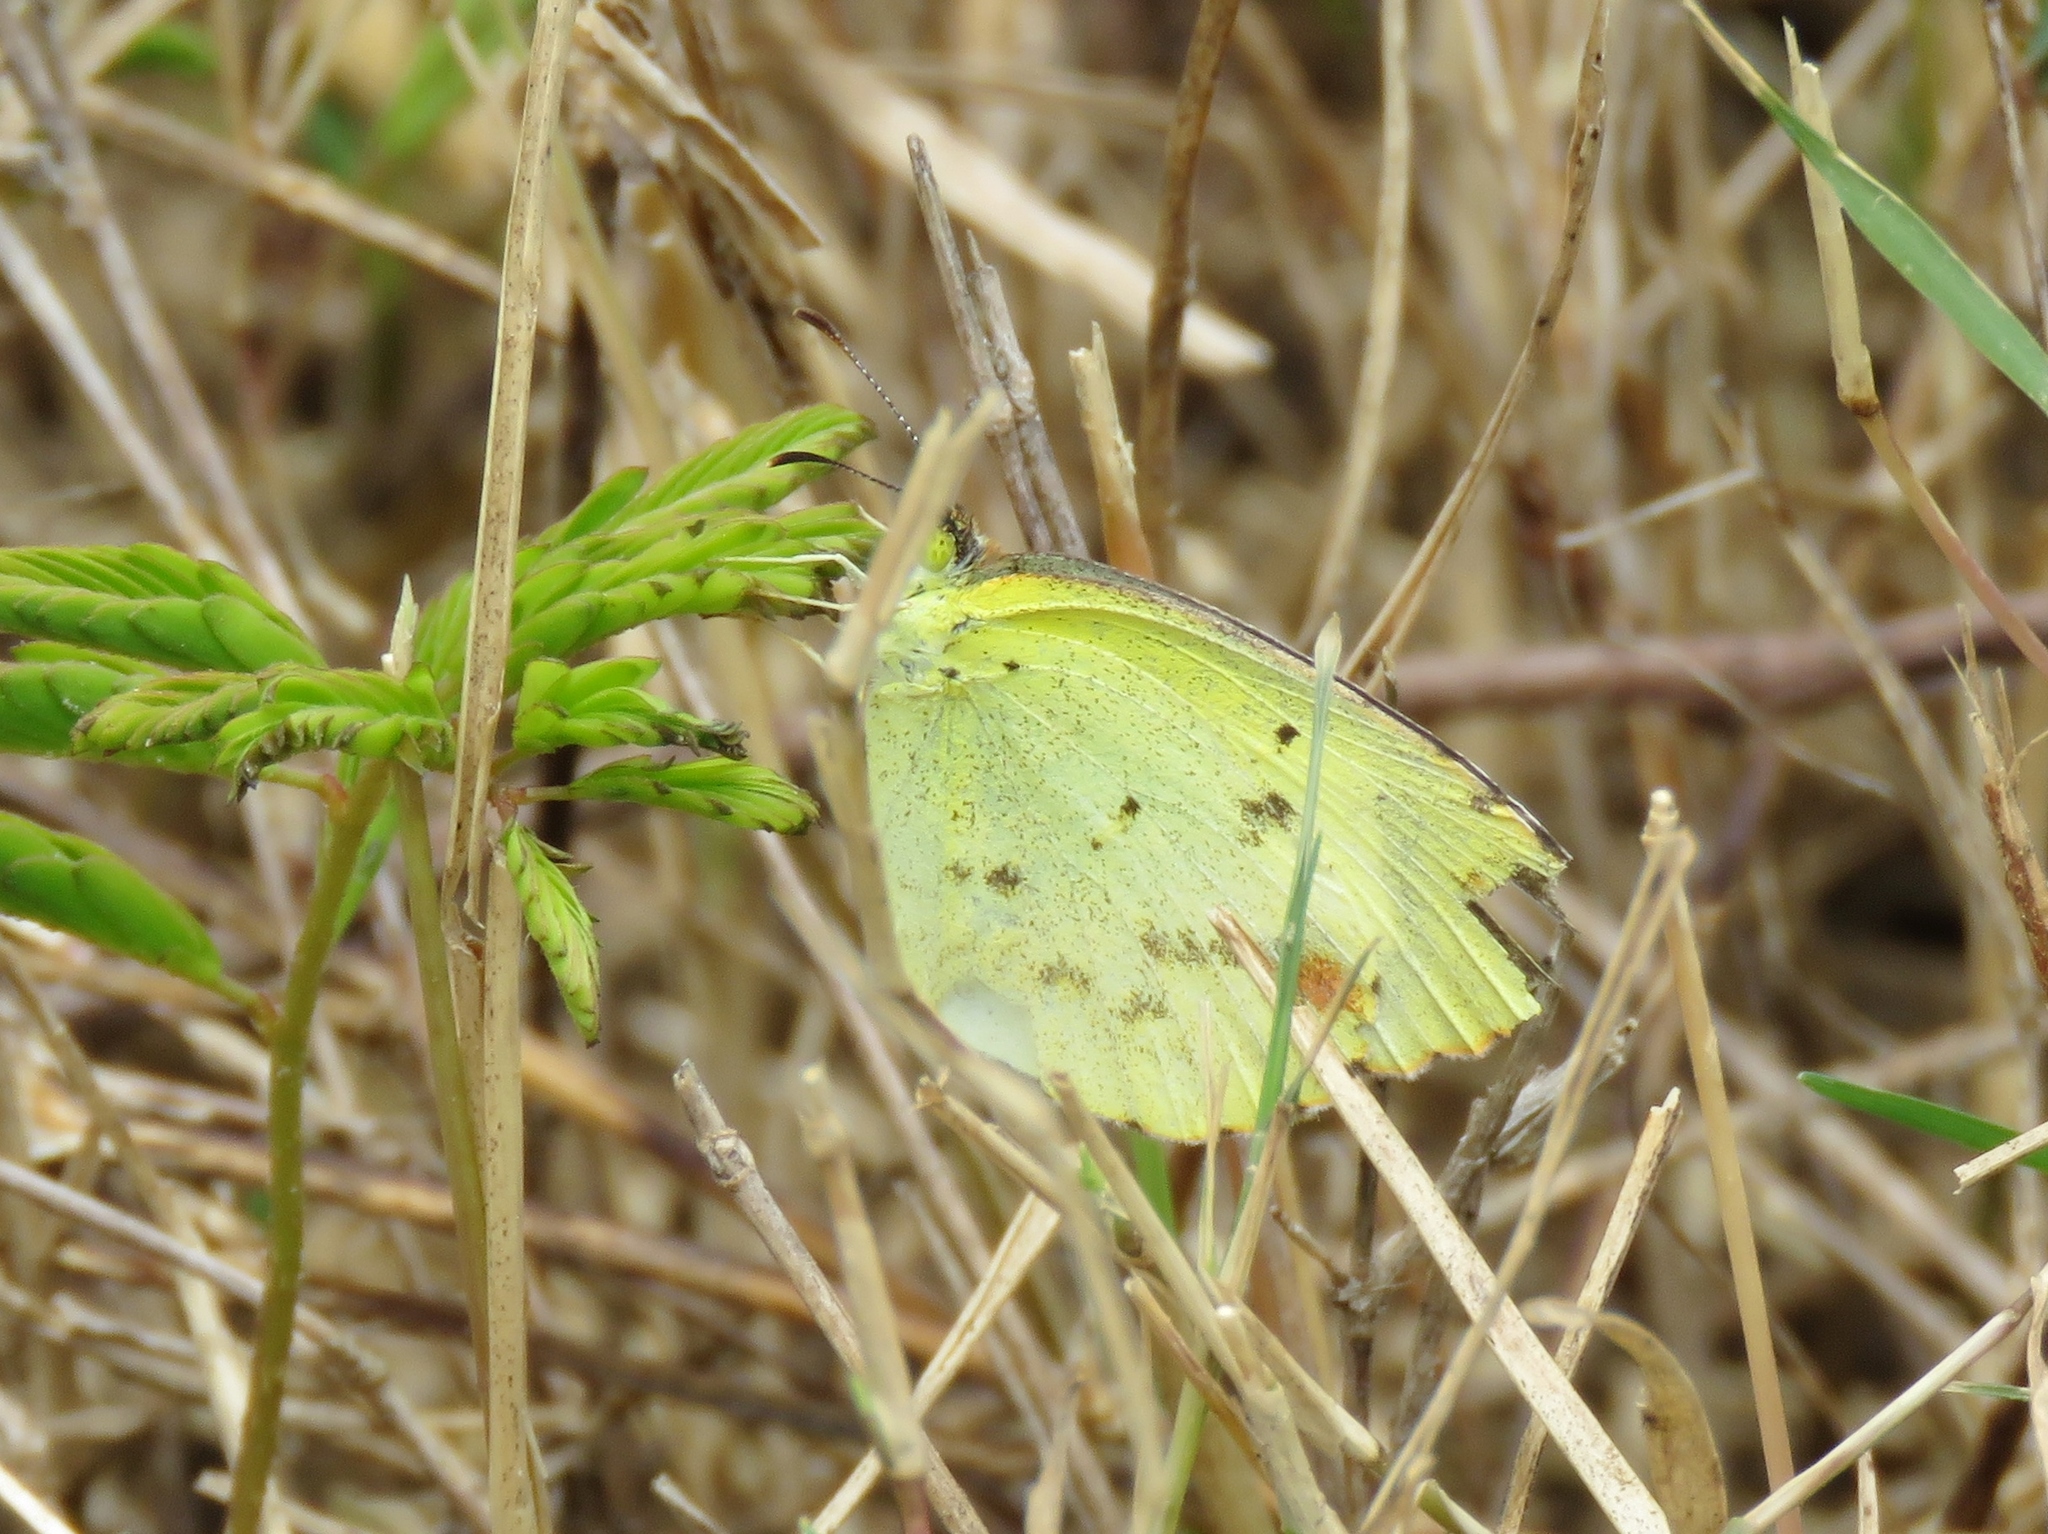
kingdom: Animalia
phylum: Arthropoda
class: Insecta
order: Lepidoptera
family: Pieridae
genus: Pyrisitia
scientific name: Pyrisitia lisa
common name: Little yellow
